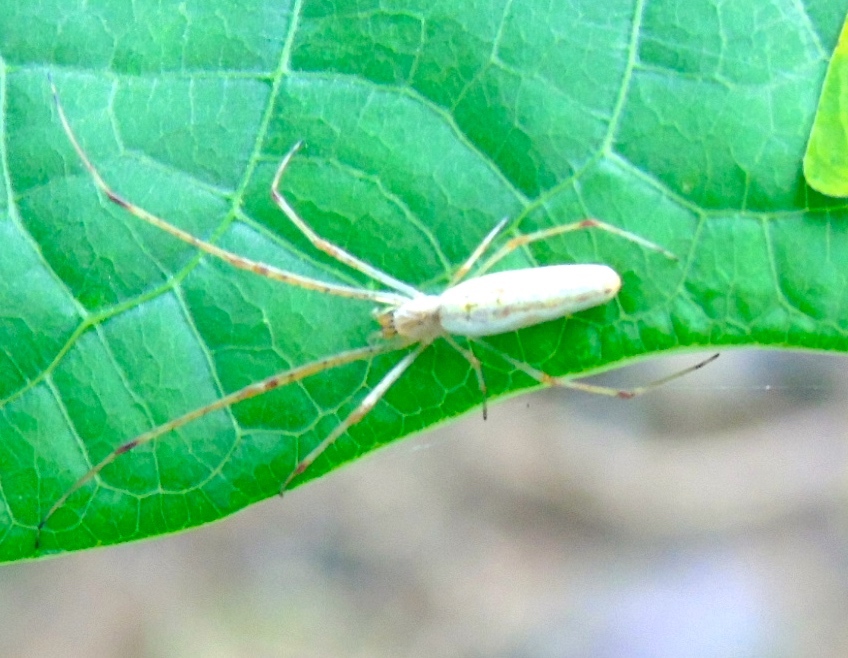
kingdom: Animalia
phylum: Arthropoda
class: Arachnida
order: Araneae
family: Tetragnathidae
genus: Tetragnatha
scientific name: Tetragnatha
